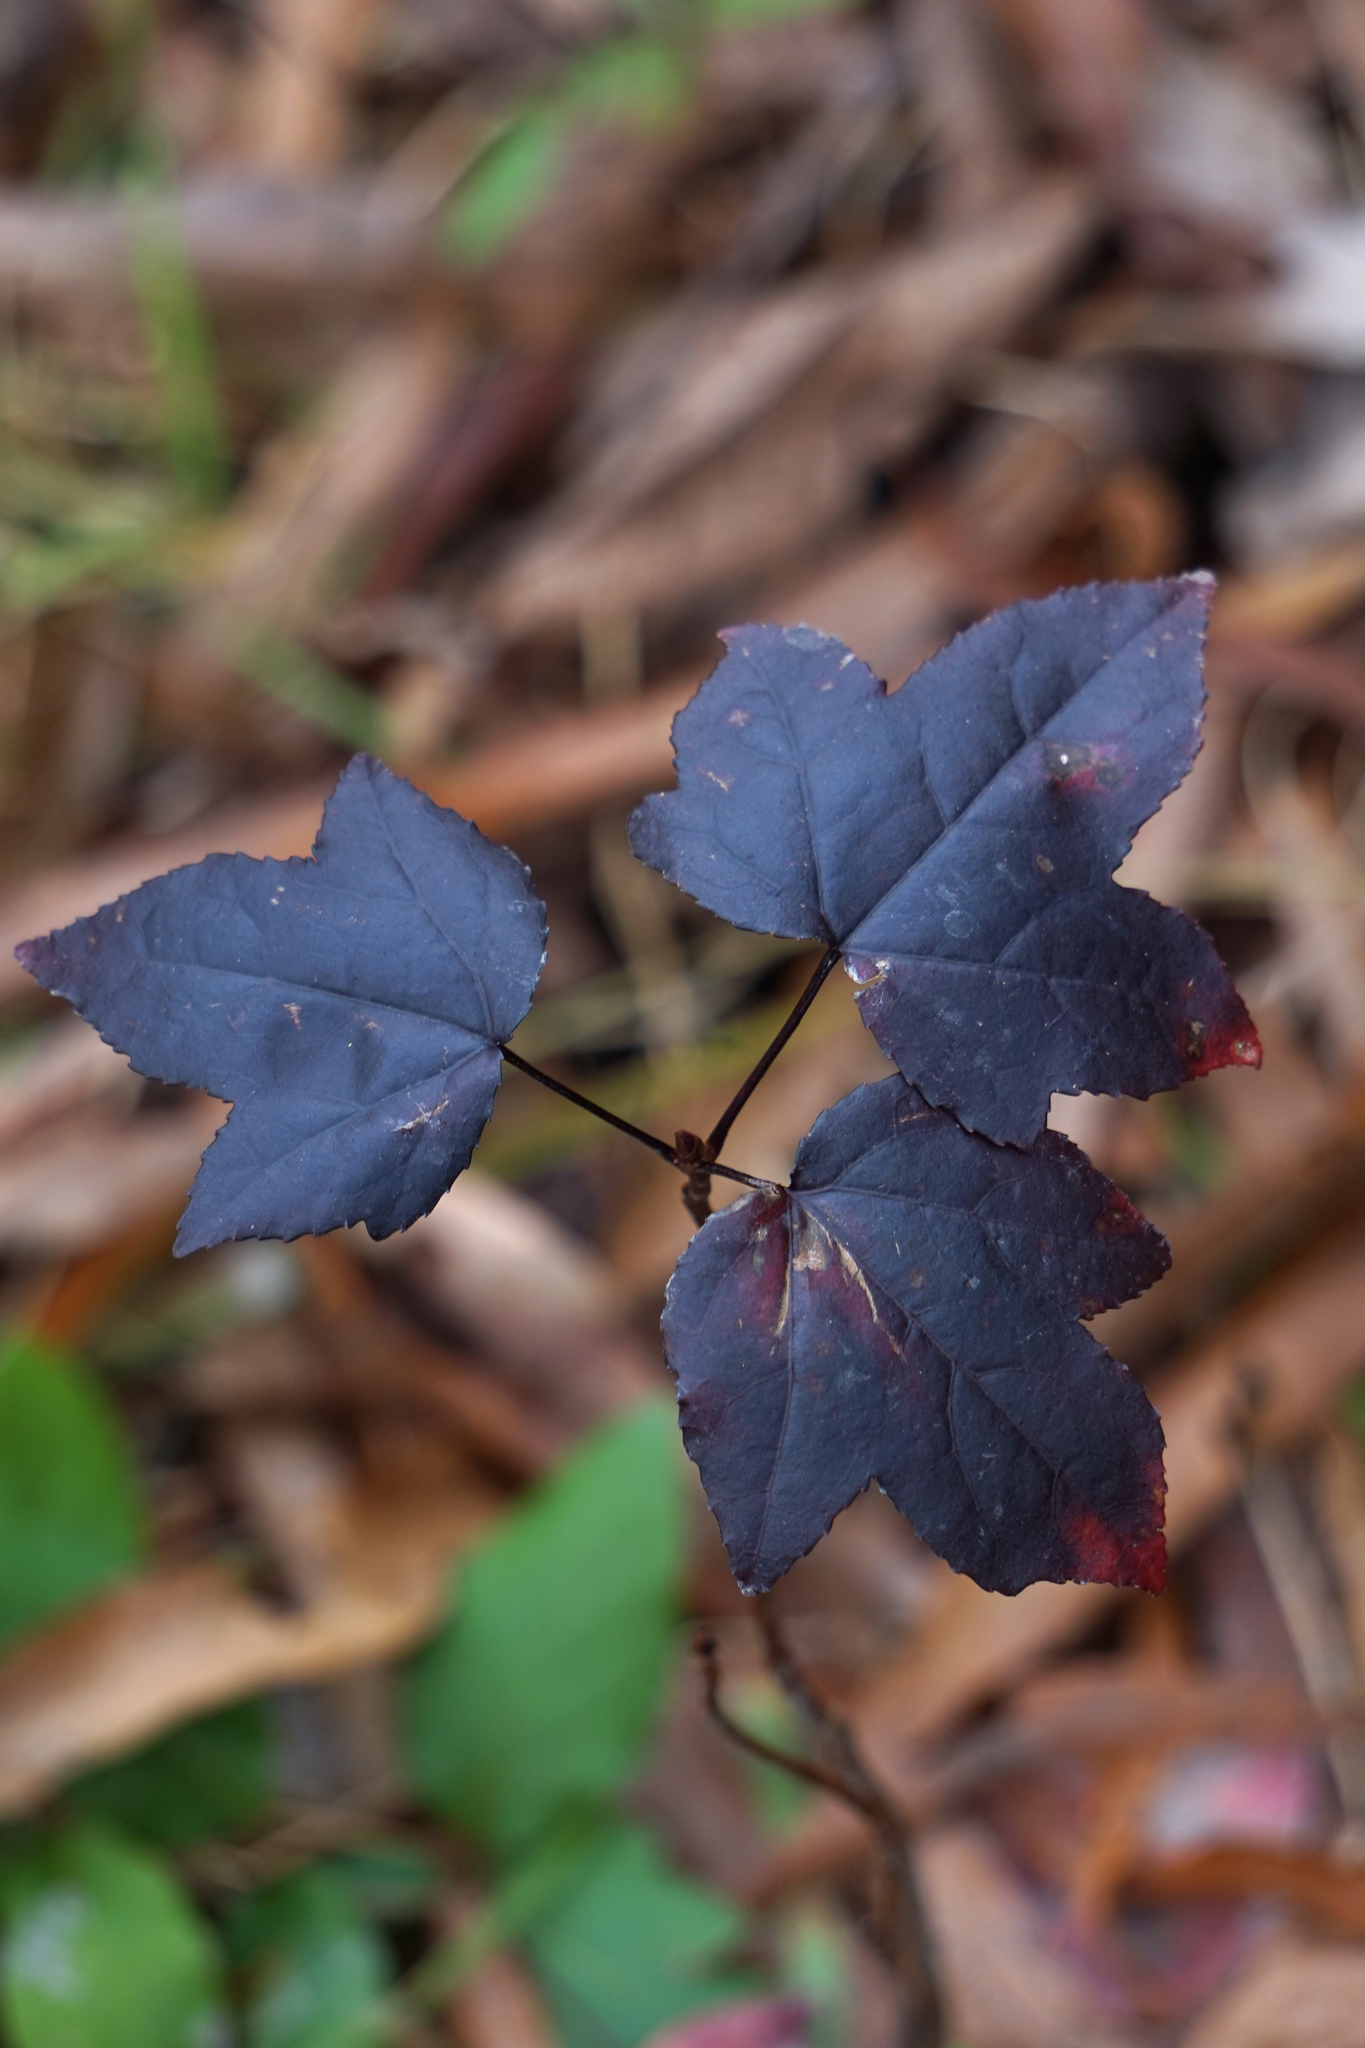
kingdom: Plantae
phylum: Tracheophyta
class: Magnoliopsida
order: Saxifragales
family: Altingiaceae
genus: Liquidambar
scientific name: Liquidambar styraciflua
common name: Sweet gum
